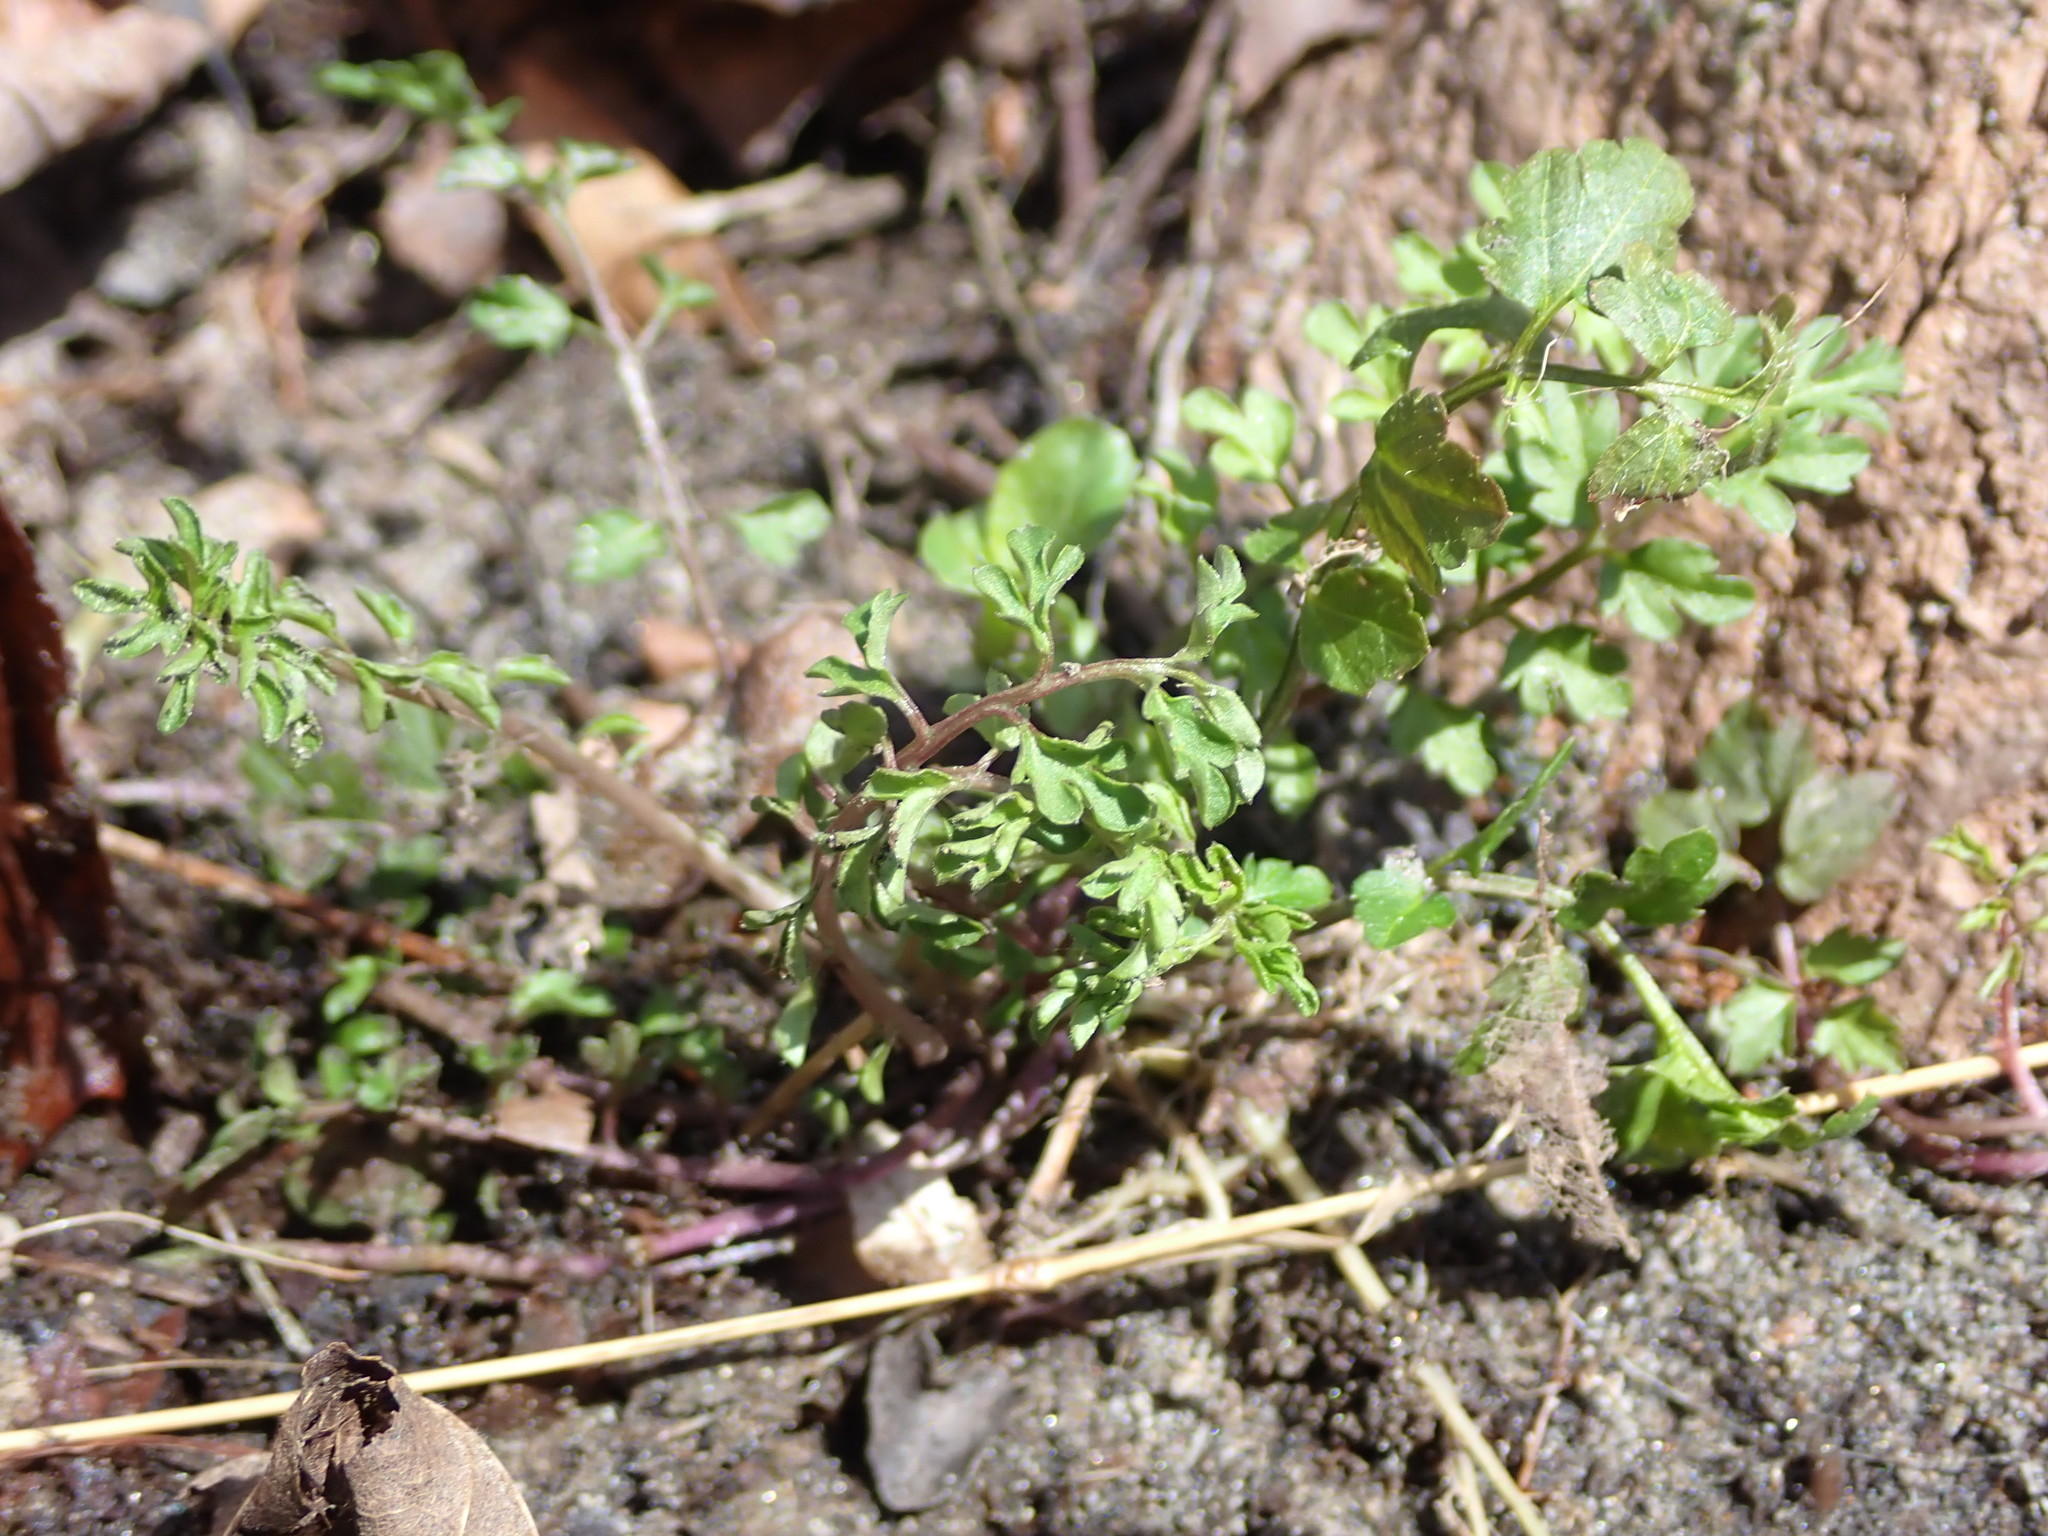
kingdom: Plantae
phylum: Tracheophyta
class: Magnoliopsida
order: Brassicales
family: Brassicaceae
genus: Cardamine
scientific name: Cardamine impatiens
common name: Narrow-leaved bitter-cress
